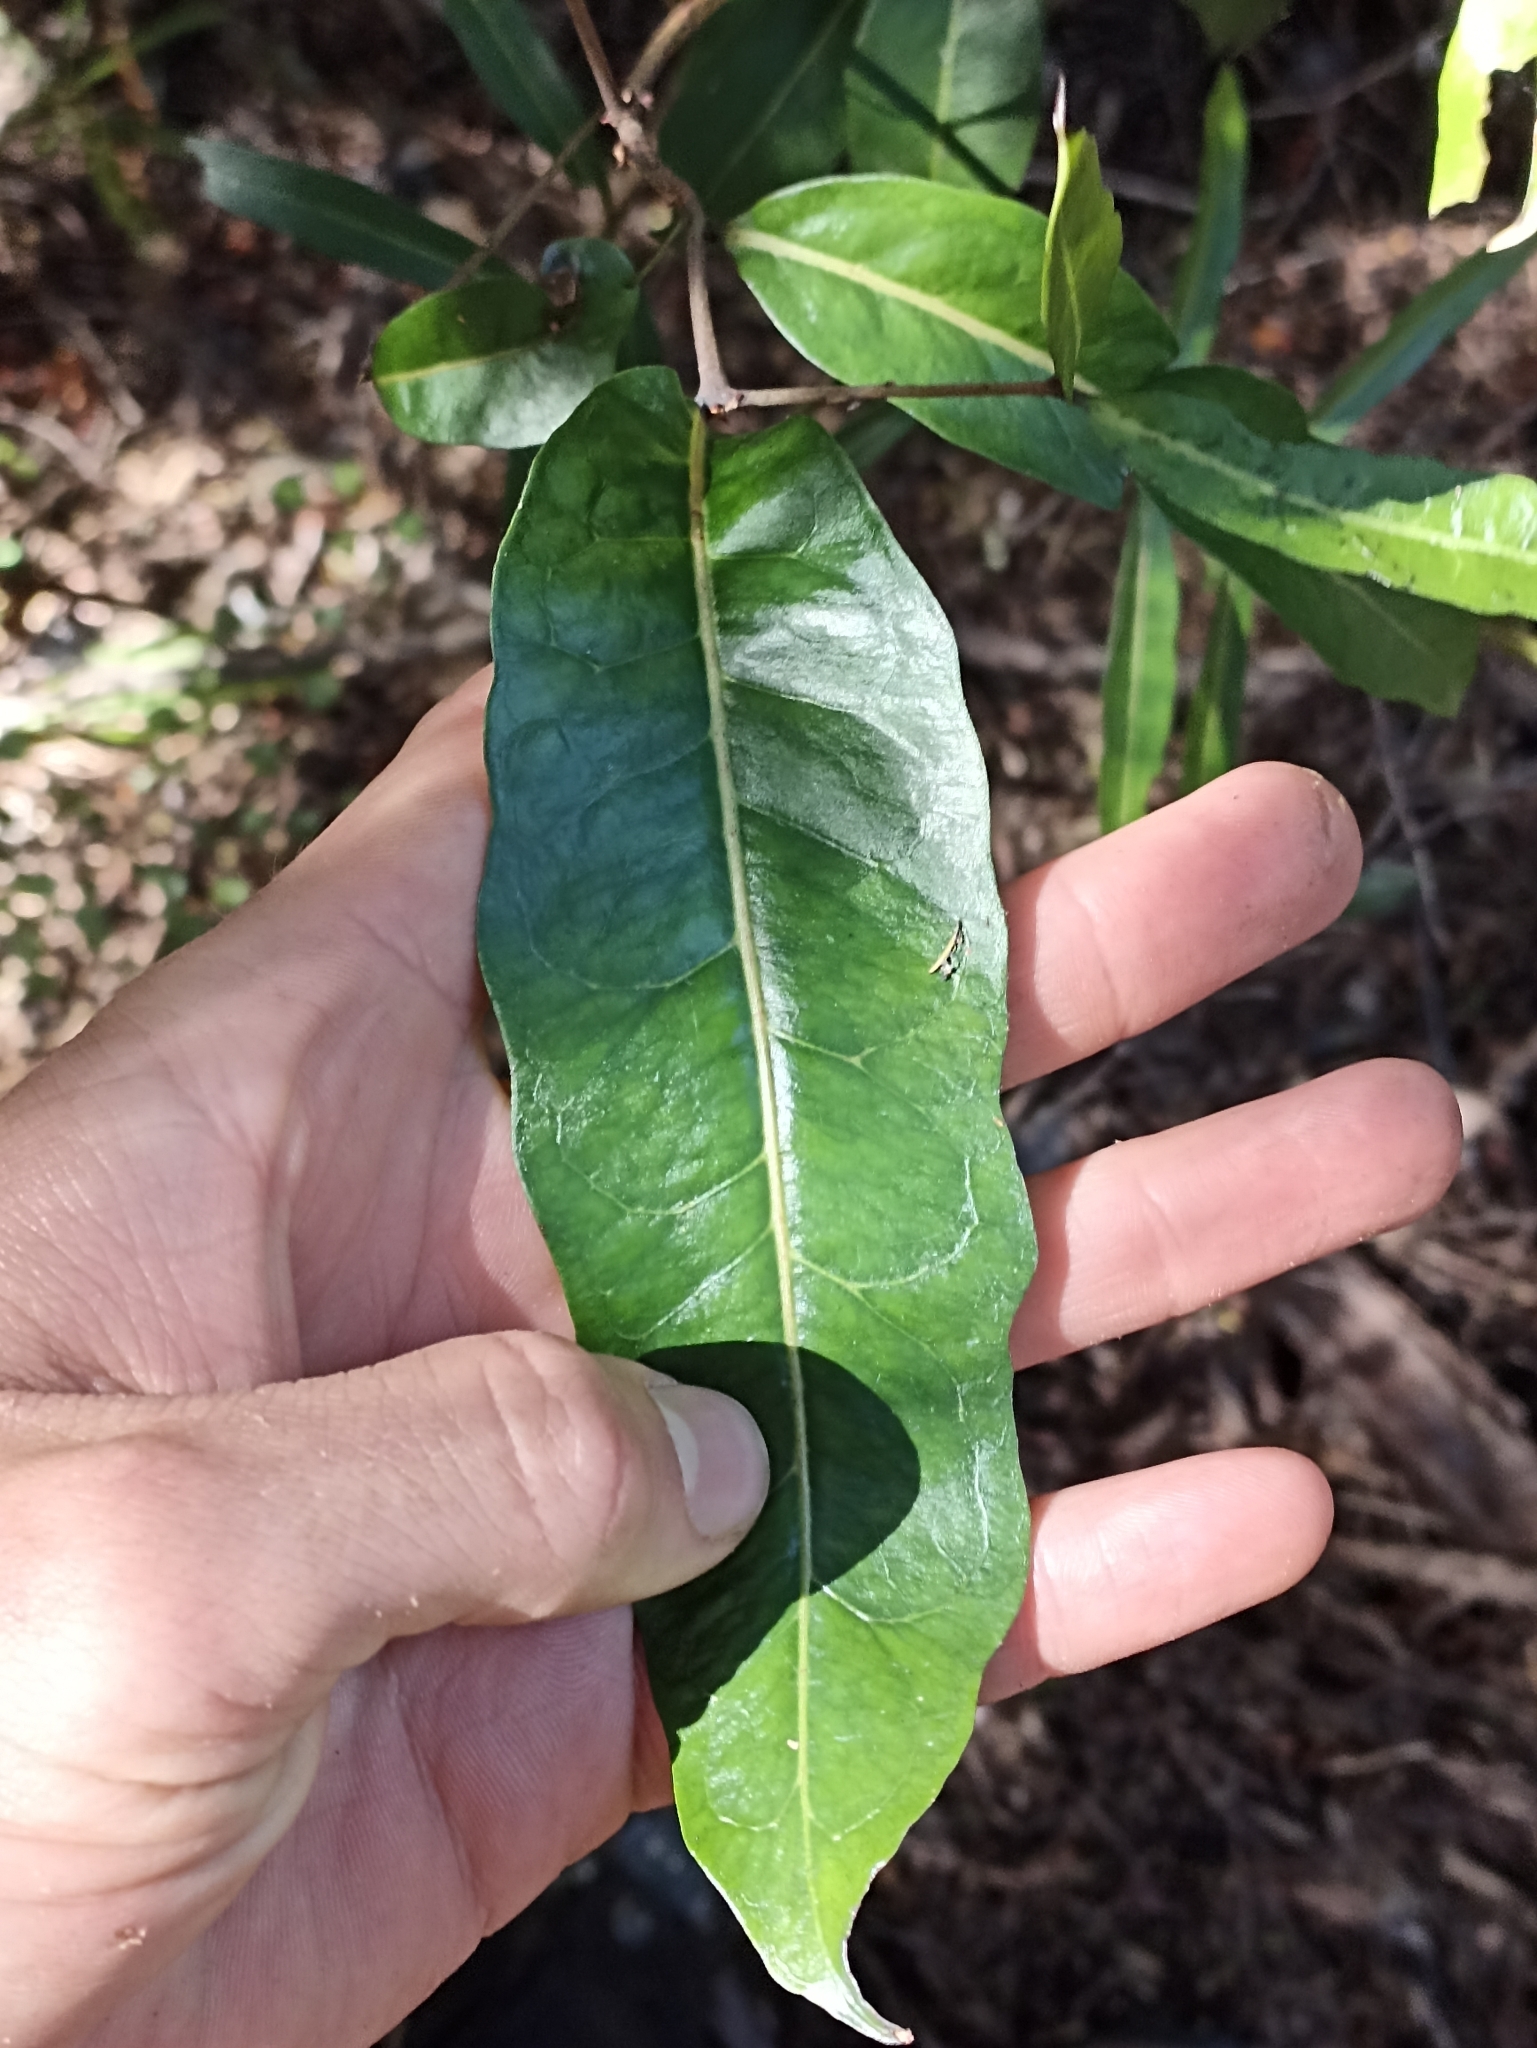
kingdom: Plantae
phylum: Tracheophyta
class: Magnoliopsida
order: Santalales
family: Nanodeaceae
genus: Mida
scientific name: Mida salicifolia
